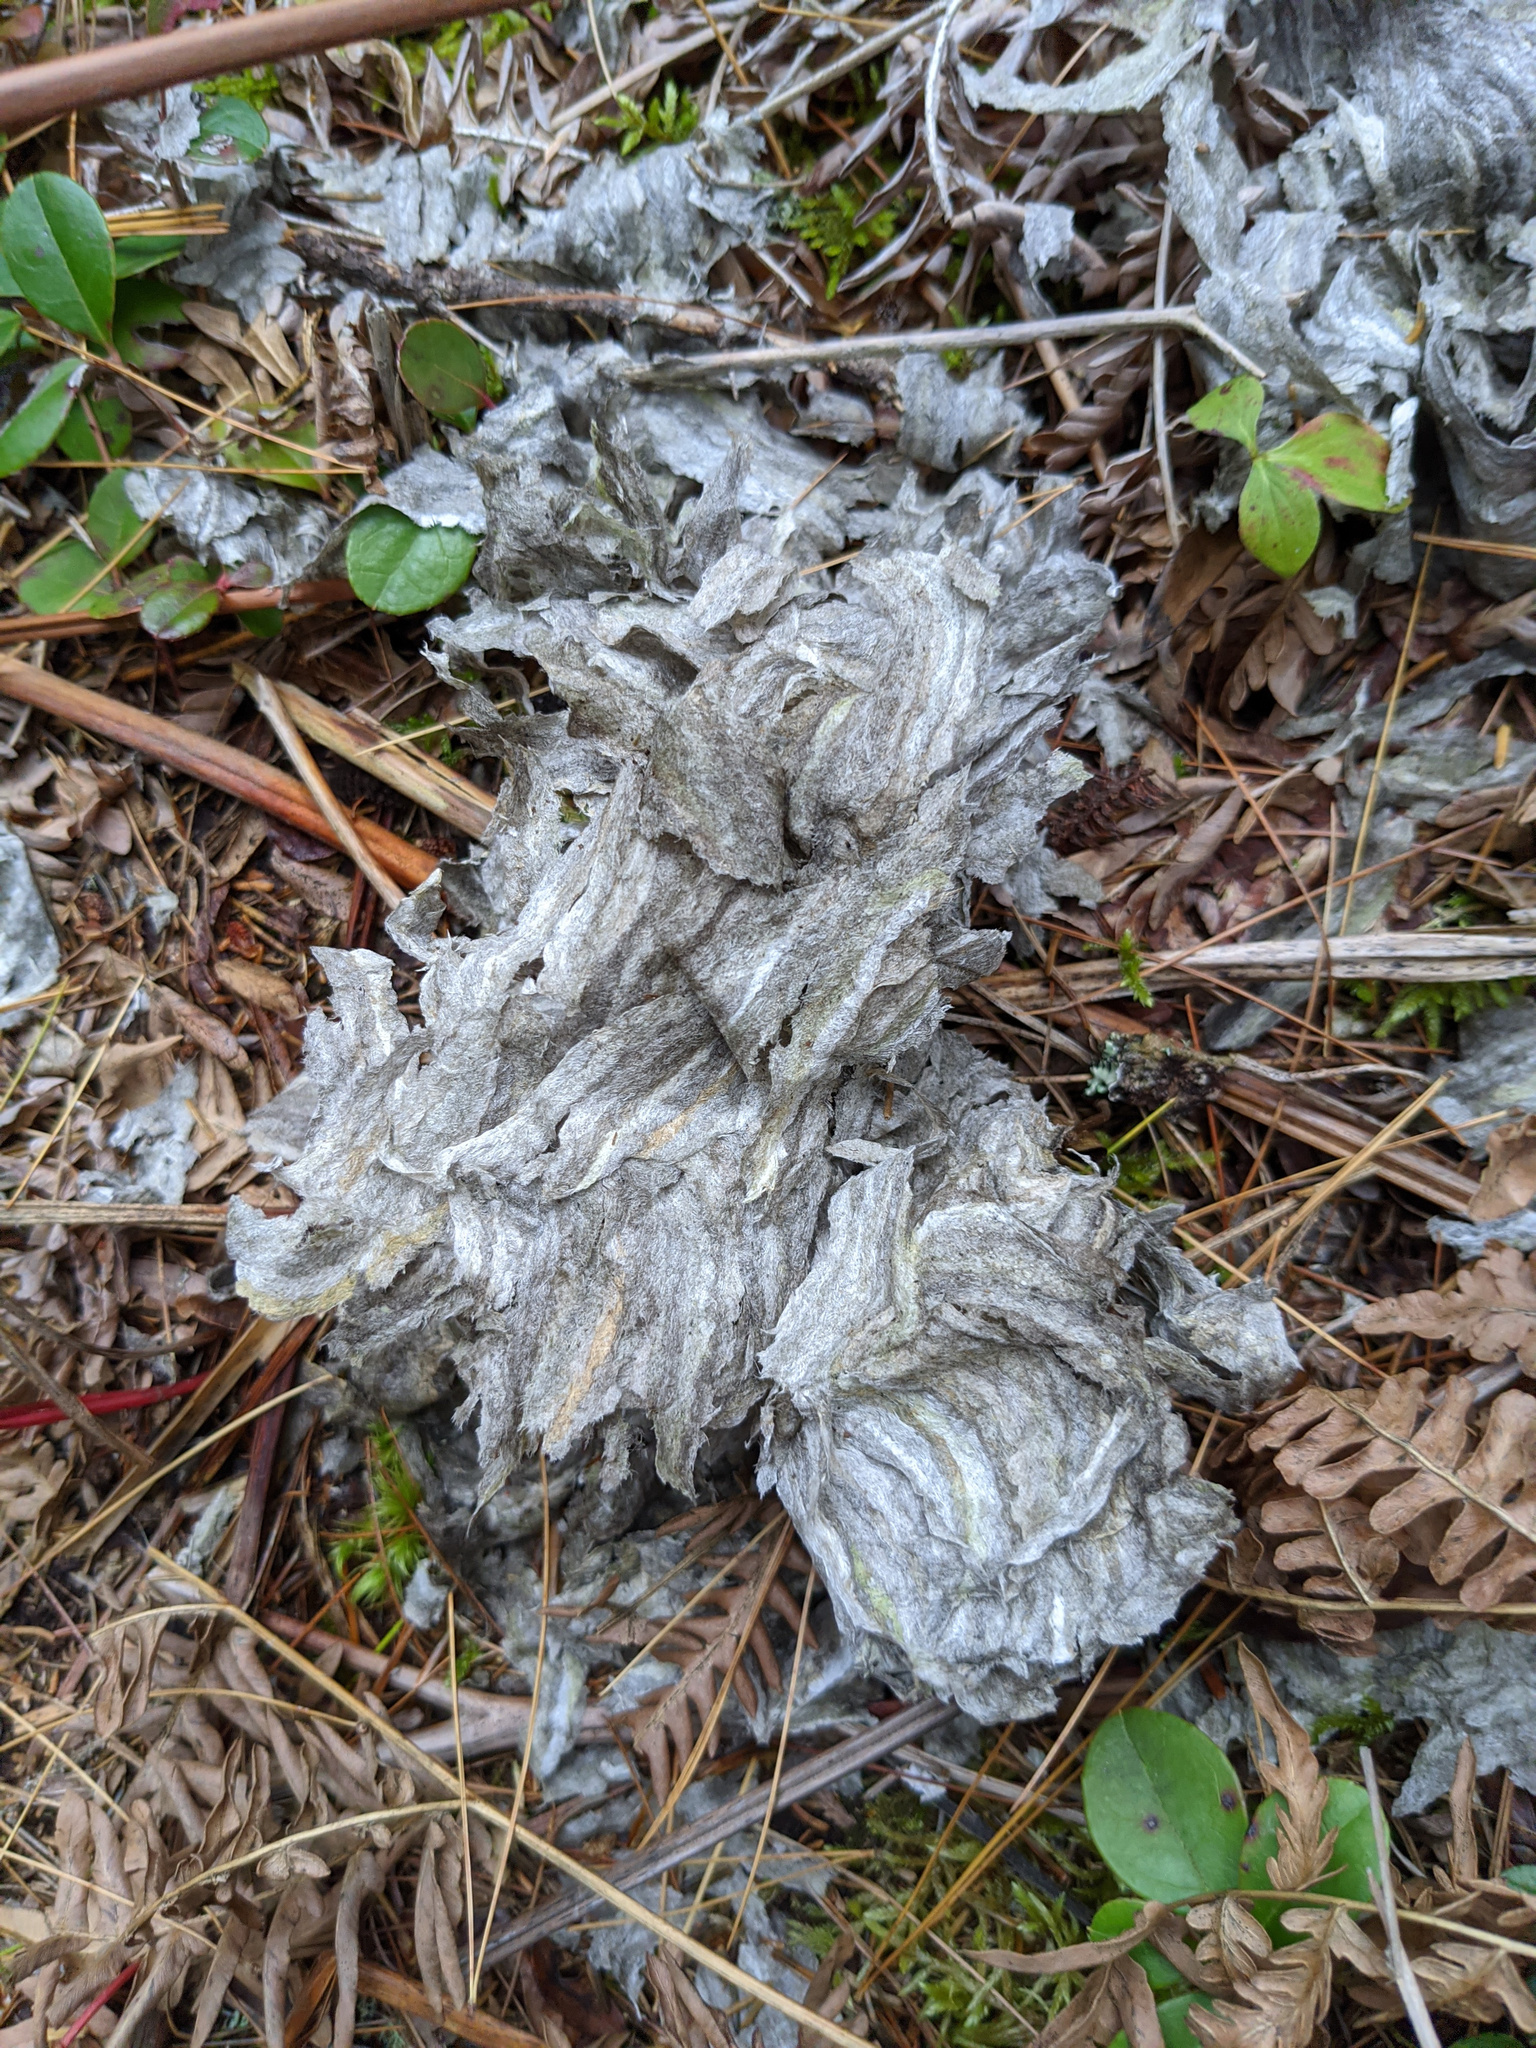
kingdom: Animalia
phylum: Arthropoda
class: Insecta
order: Hymenoptera
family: Vespidae
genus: Dolichovespula
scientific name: Dolichovespula
